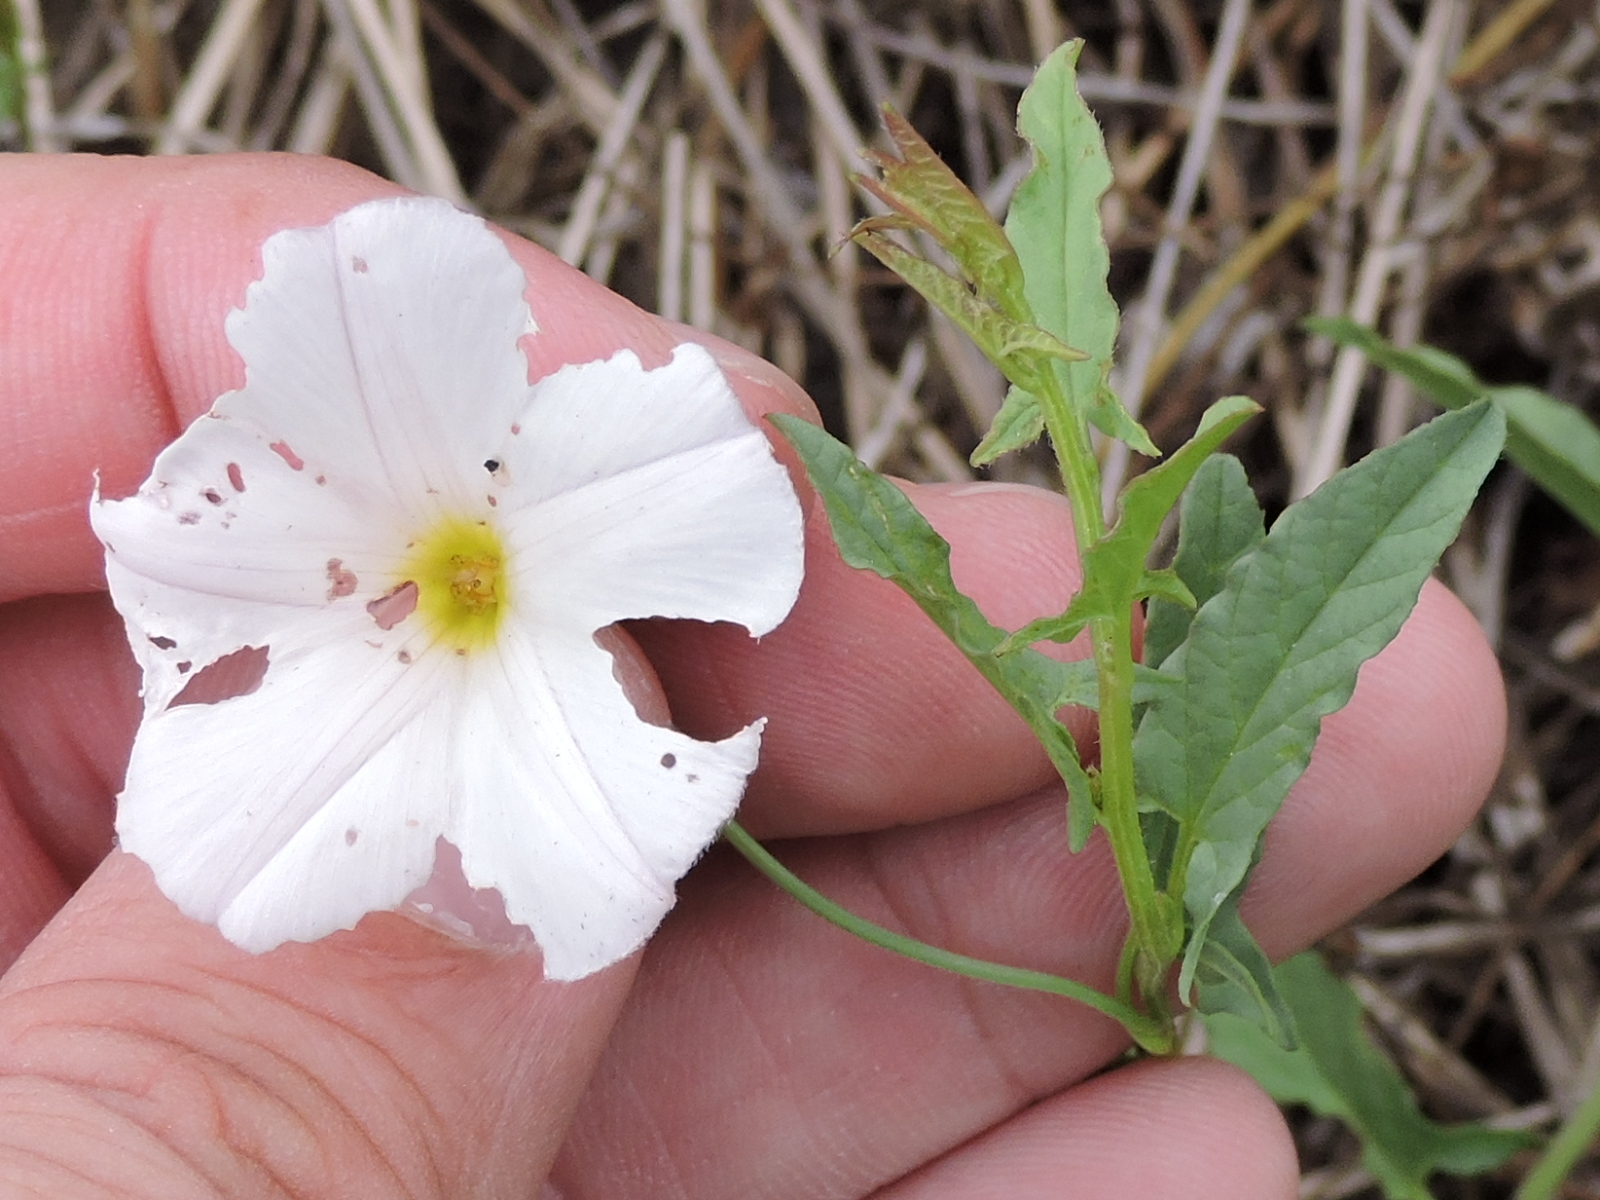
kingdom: Plantae
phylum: Tracheophyta
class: Magnoliopsida
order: Solanales
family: Convolvulaceae
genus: Convolvulus
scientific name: Convolvulus arvensis
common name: Field bindweed
